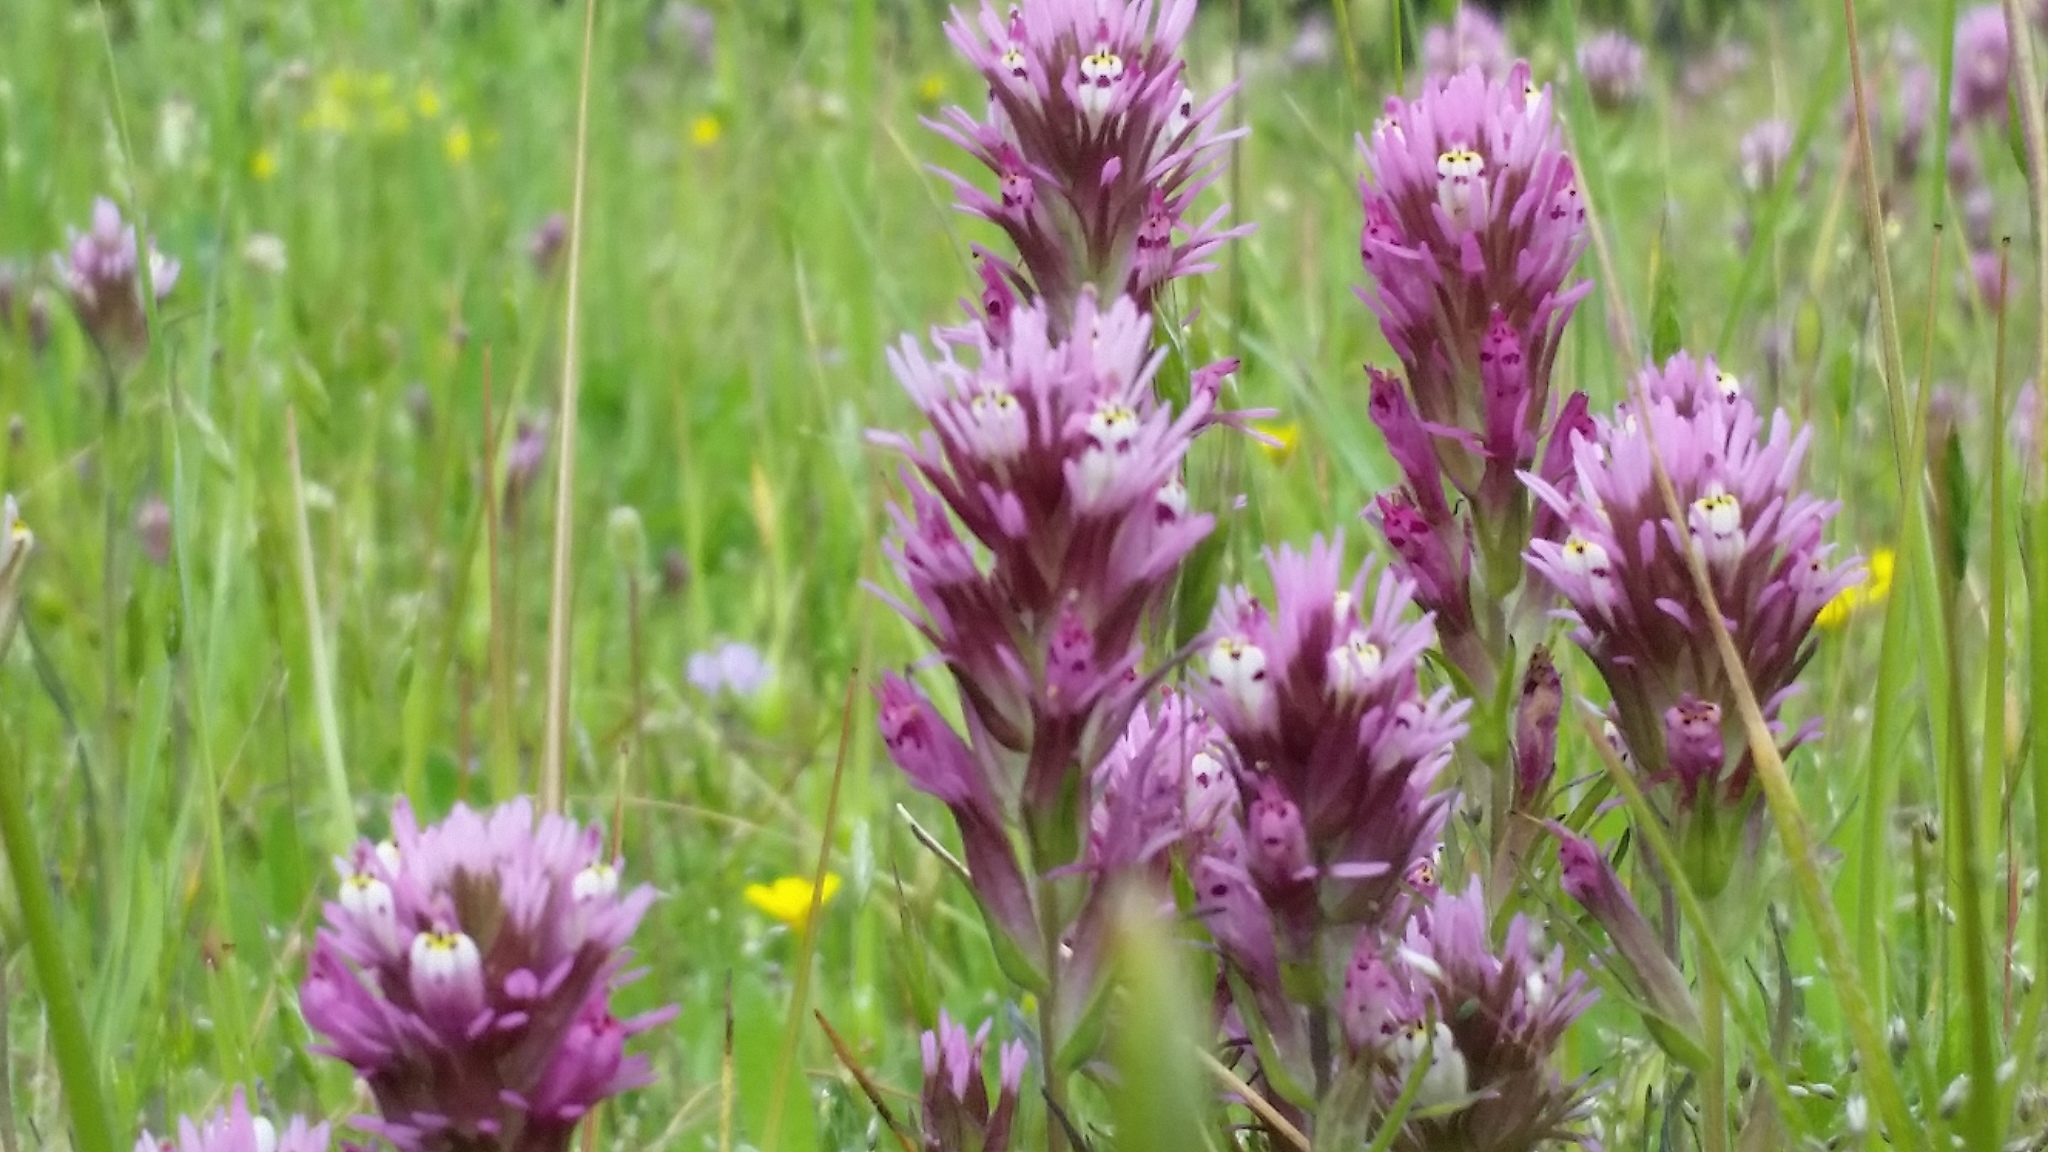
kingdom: Plantae
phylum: Tracheophyta
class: Magnoliopsida
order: Lamiales
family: Orobanchaceae
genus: Castilleja
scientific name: Castilleja densiflora
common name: Dense-flower indian paintbrush
